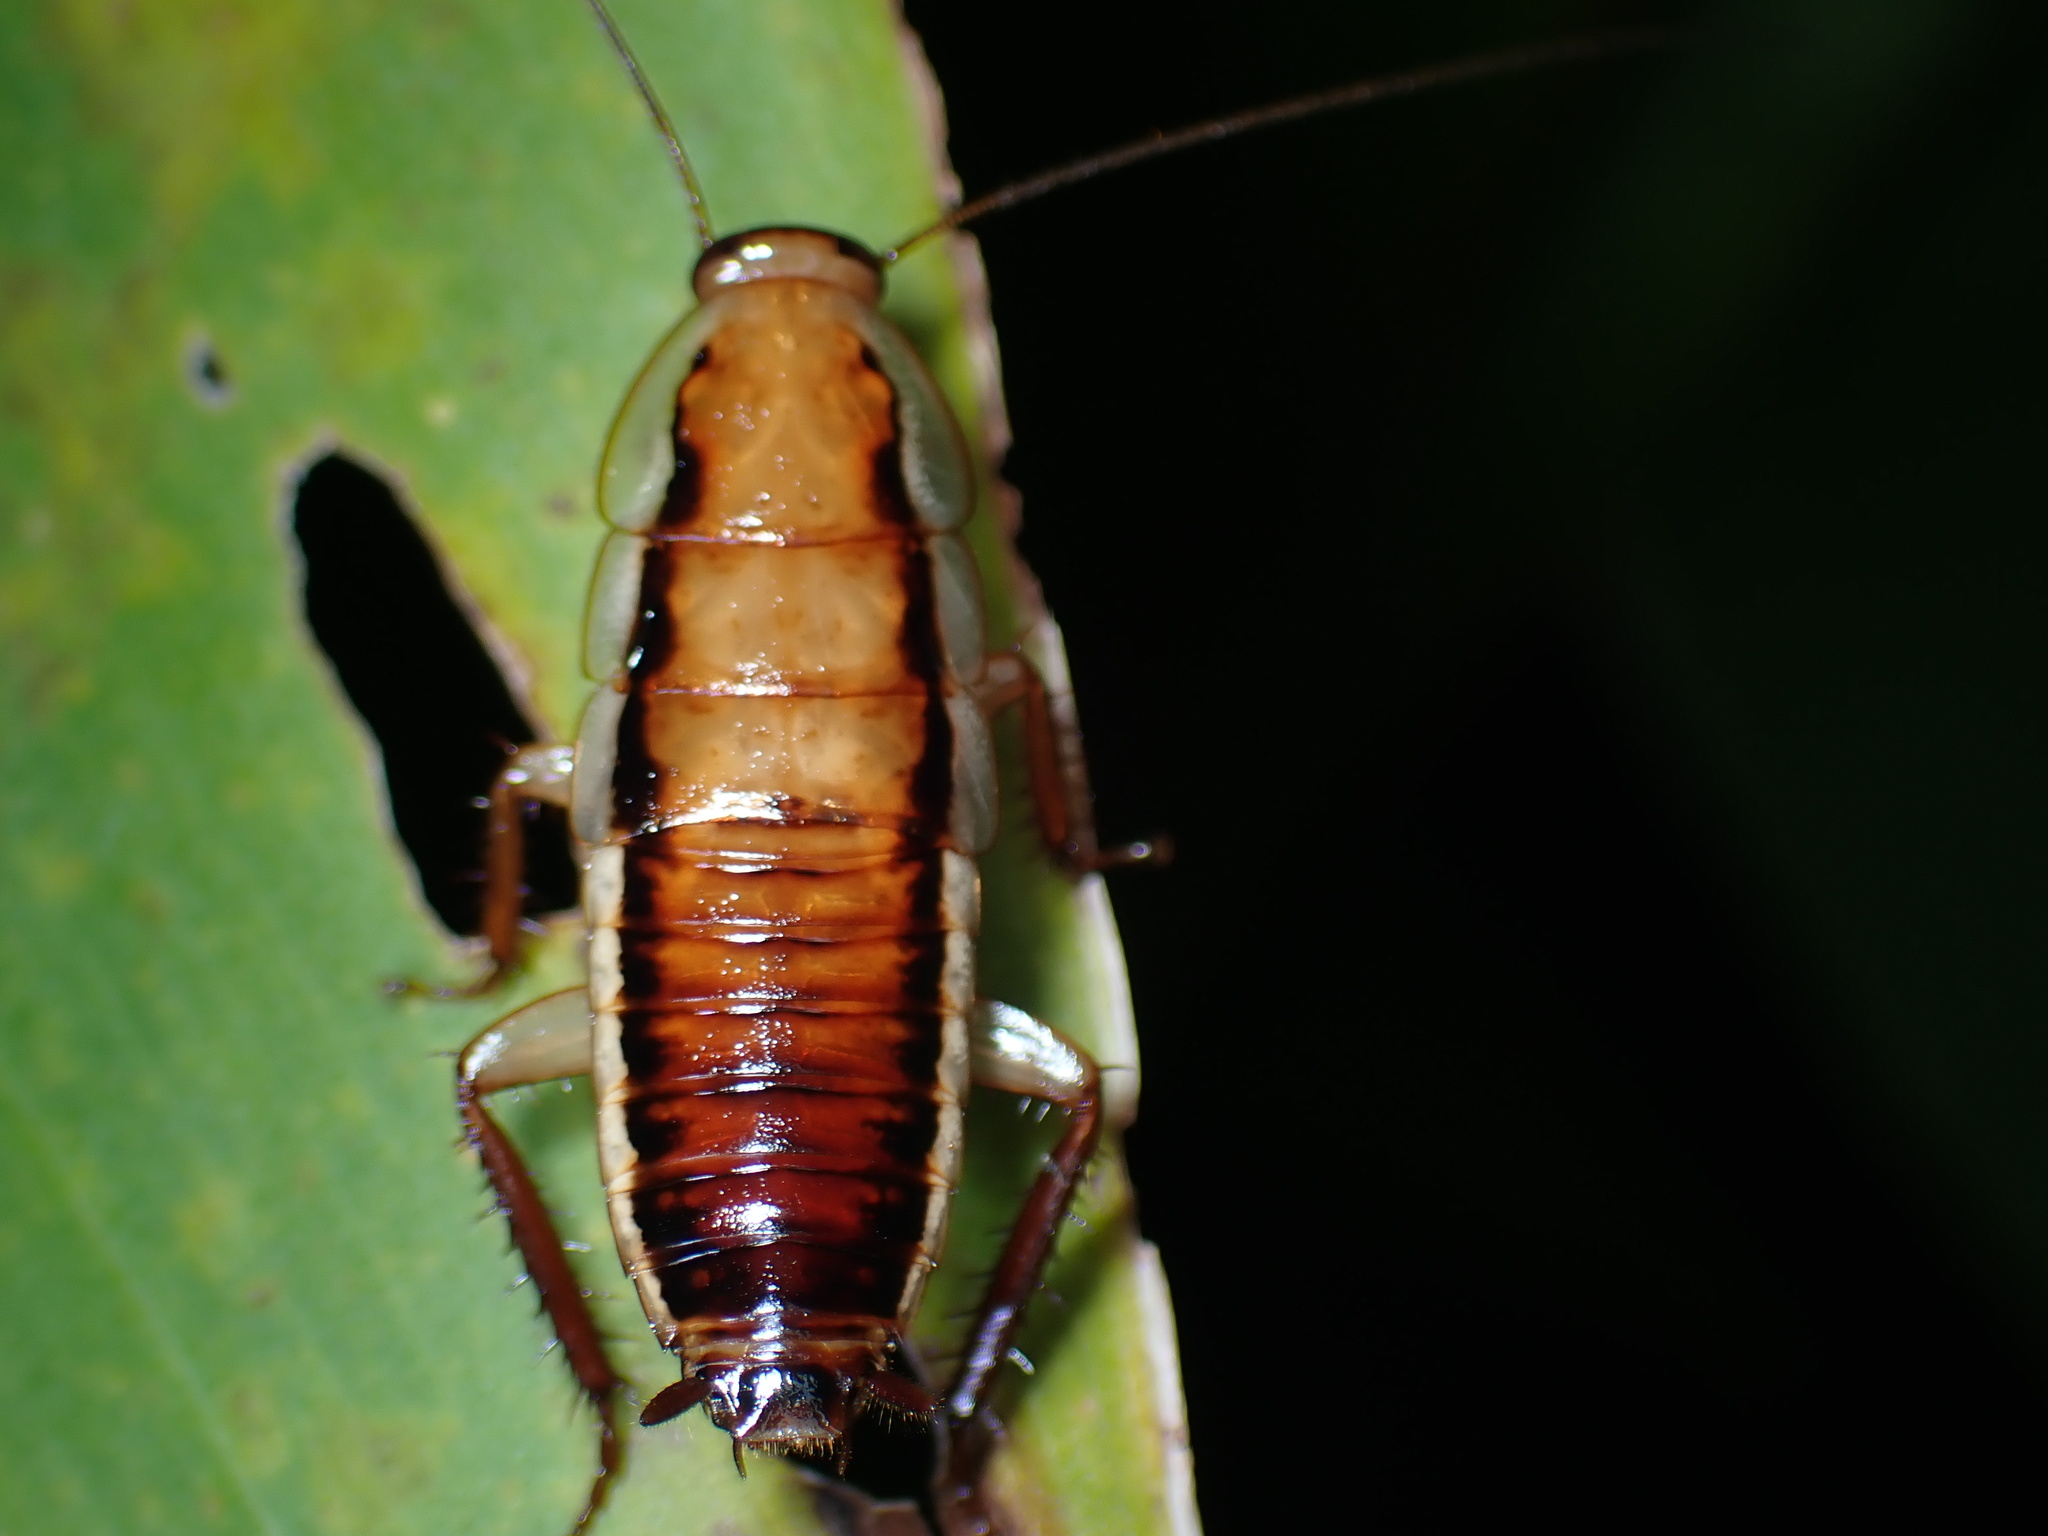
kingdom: Animalia
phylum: Arthropoda
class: Insecta
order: Blattodea
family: Blattidae
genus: Drymaplaneta
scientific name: Drymaplaneta heydeniana
